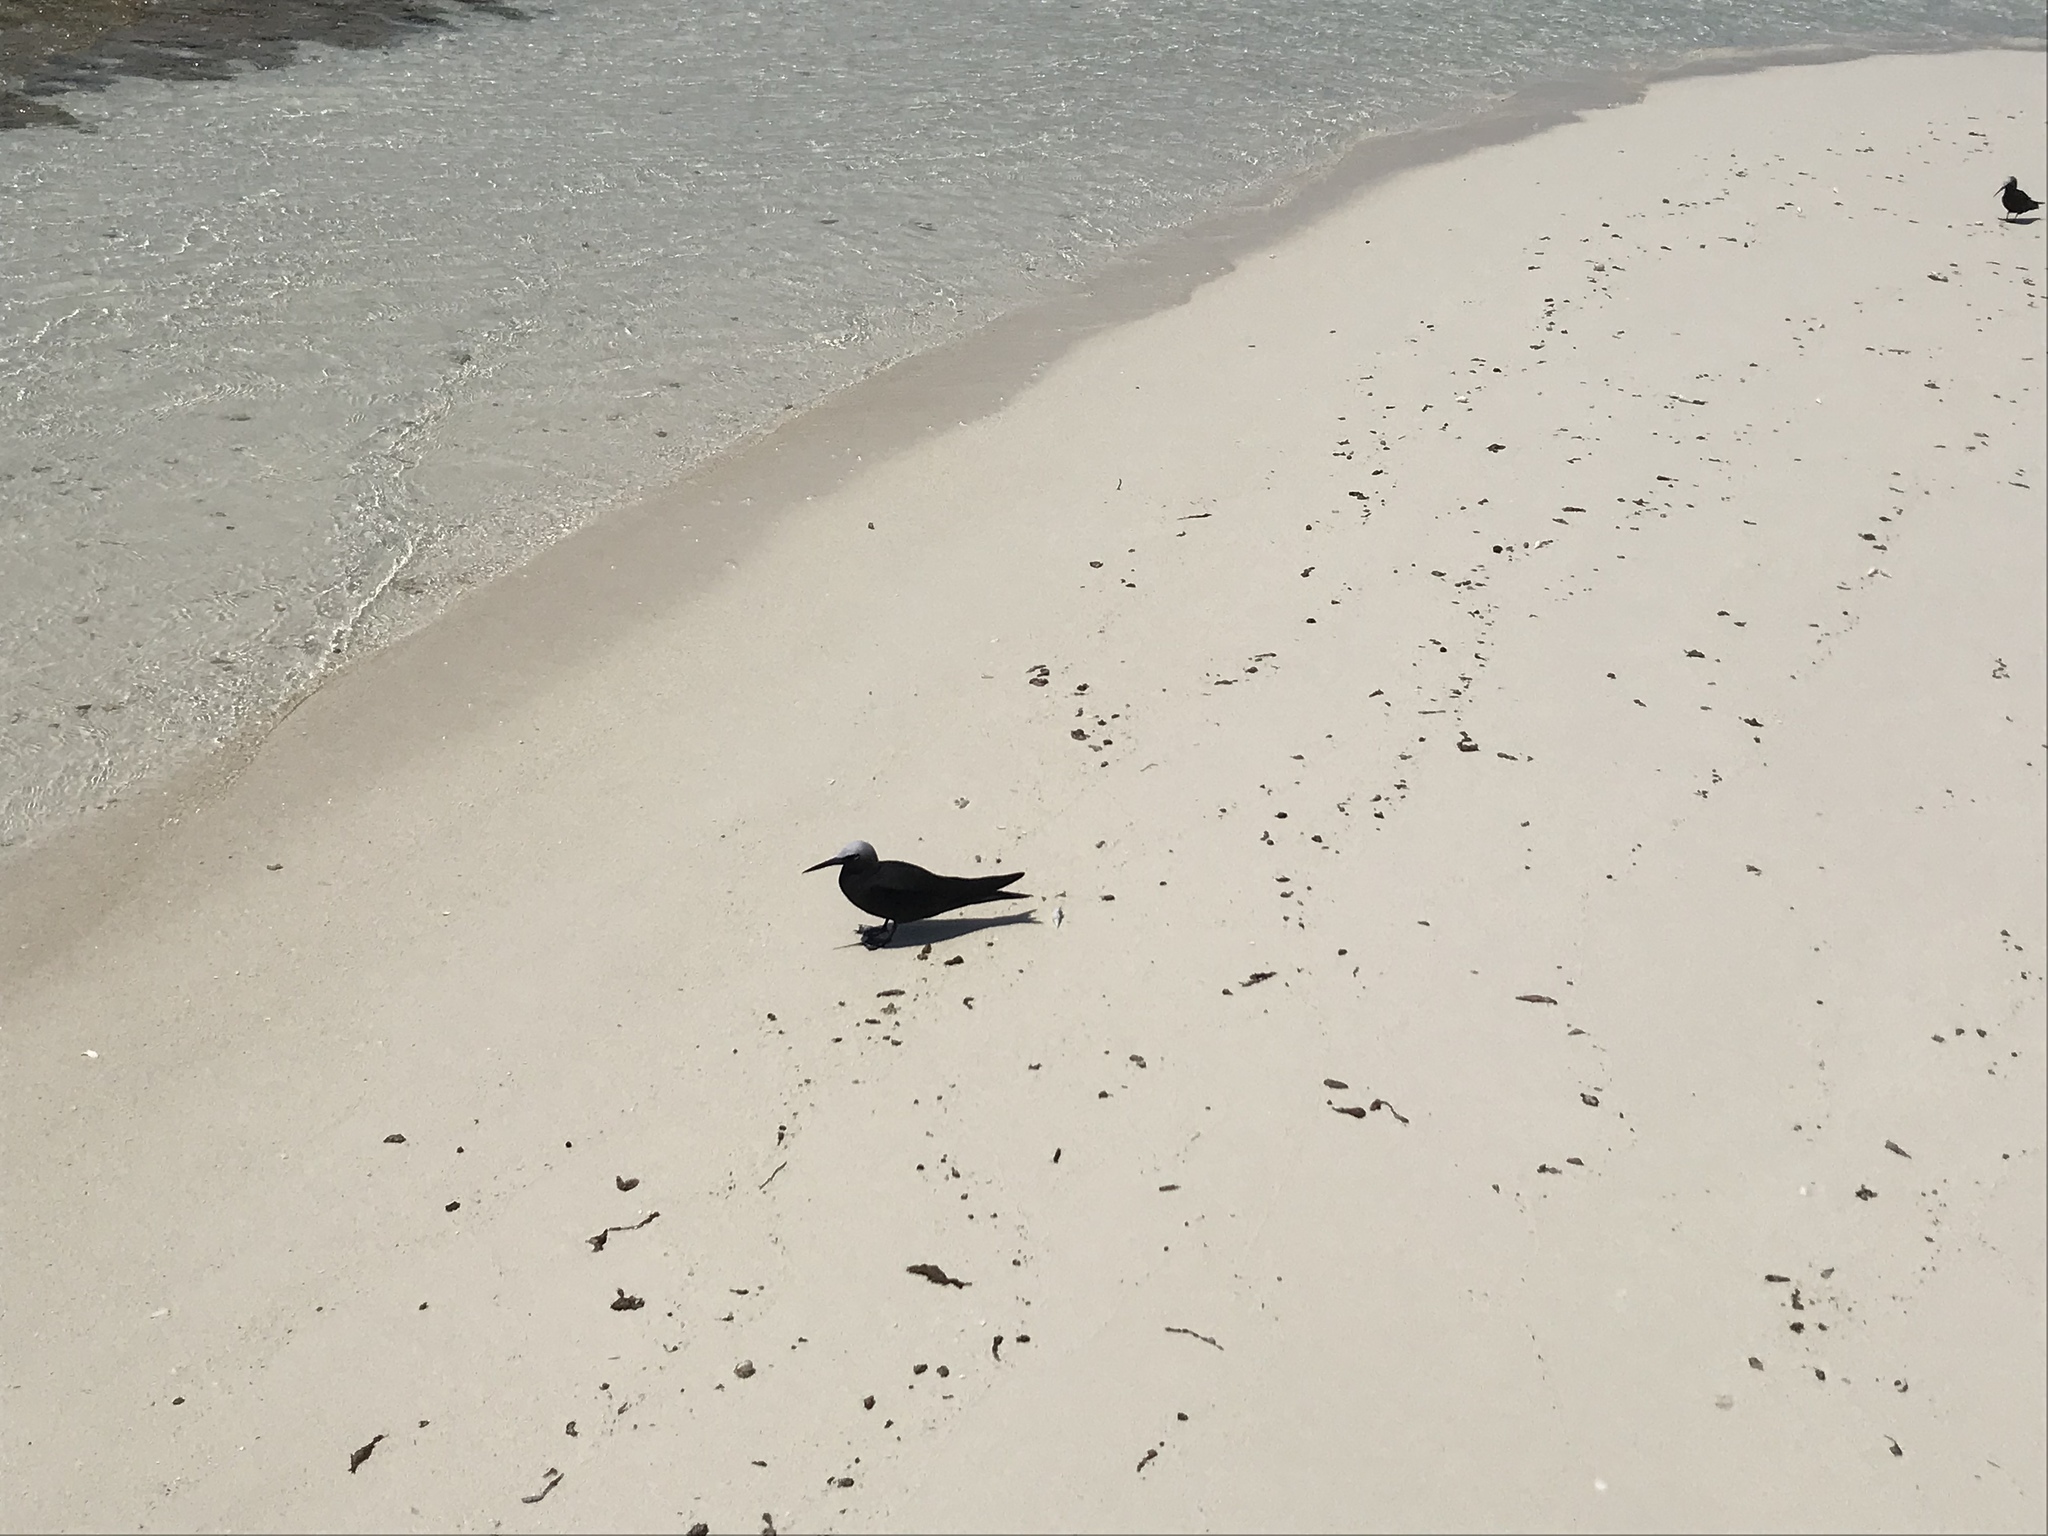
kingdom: Animalia
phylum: Chordata
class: Aves
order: Charadriiformes
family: Laridae
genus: Anous
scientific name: Anous minutus
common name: Black noddy
